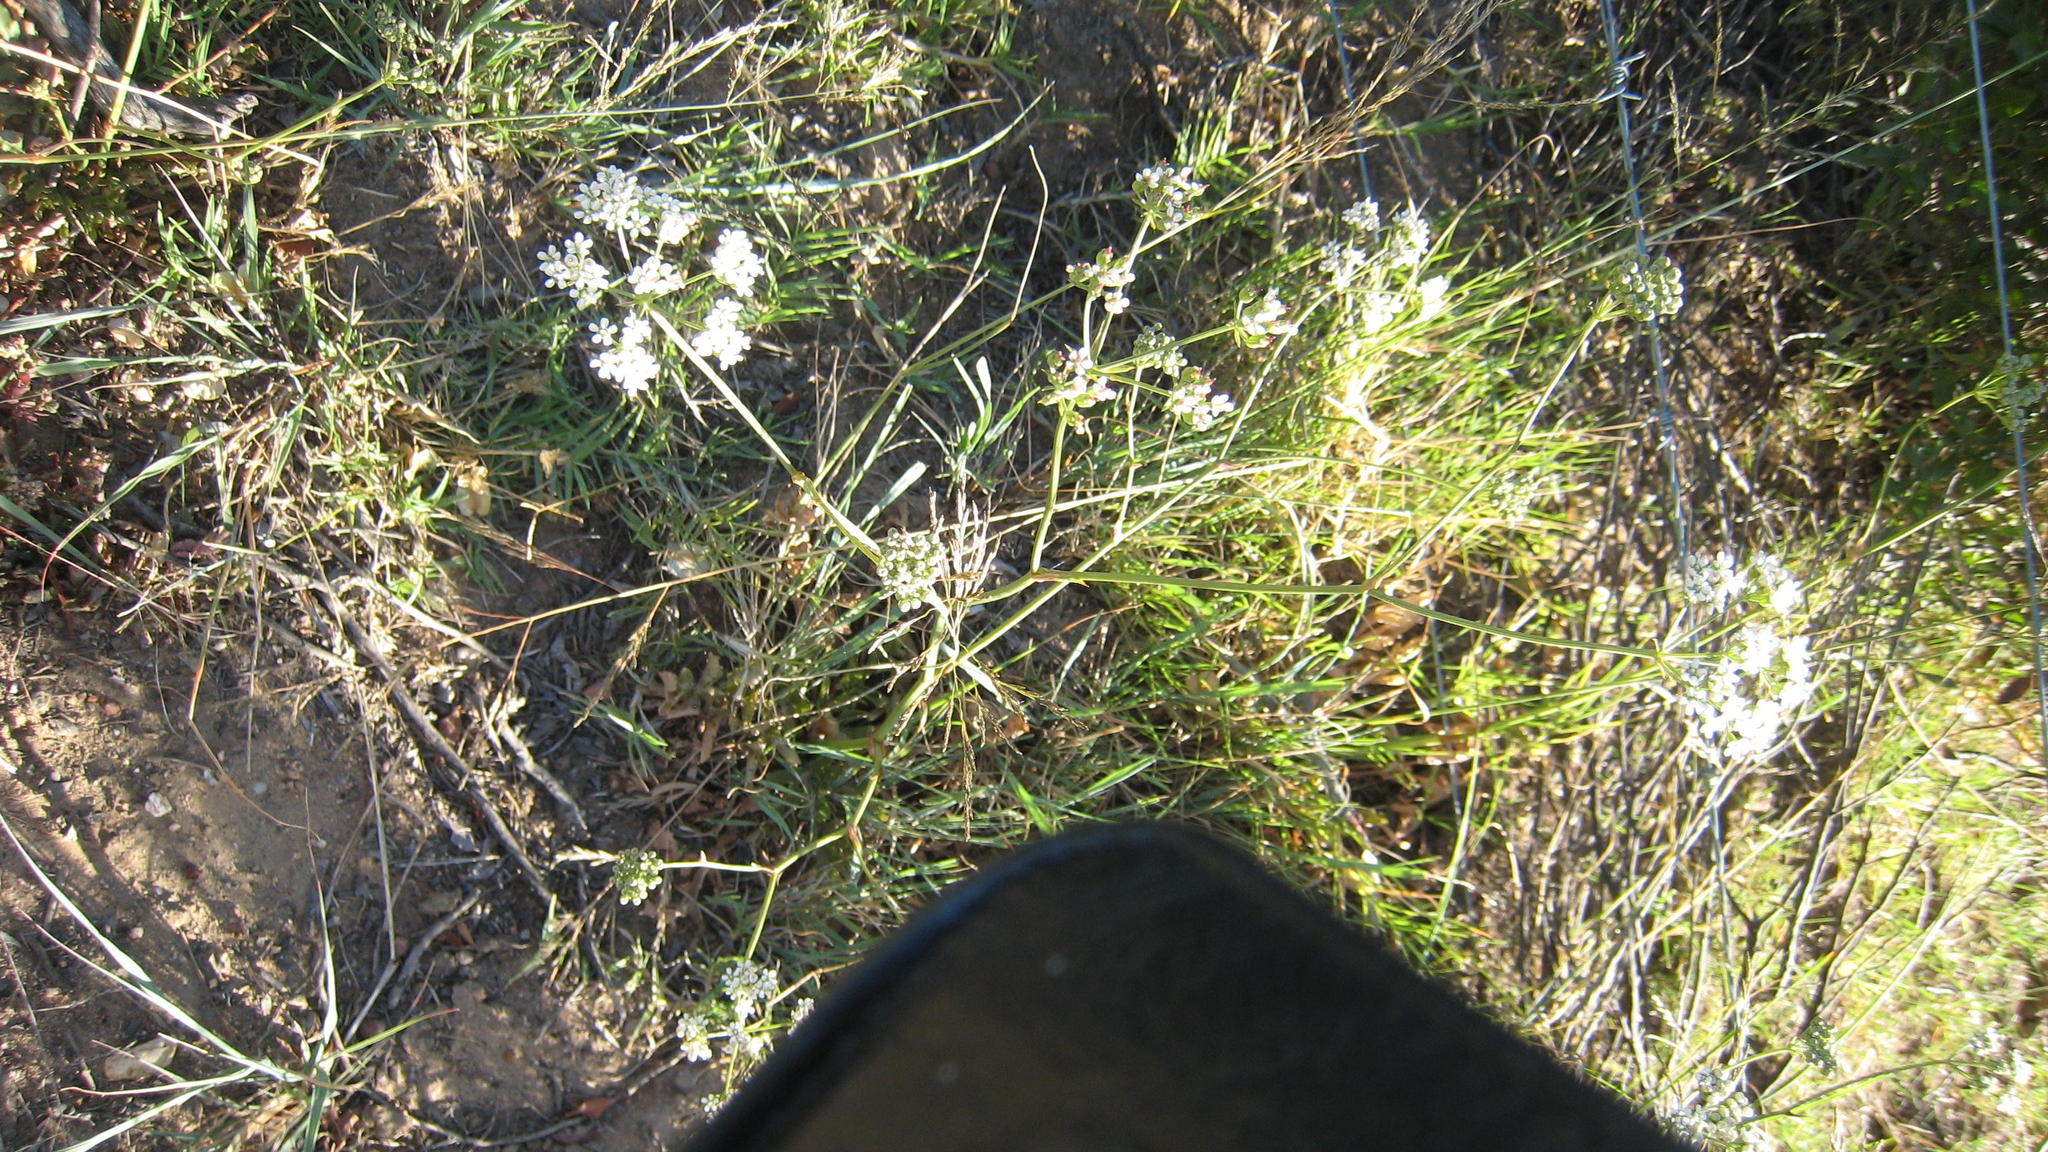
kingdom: Plantae
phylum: Tracheophyta
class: Magnoliopsida
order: Apiales
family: Apiaceae
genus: Lichtensteinia
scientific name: Lichtensteinia interrupta
